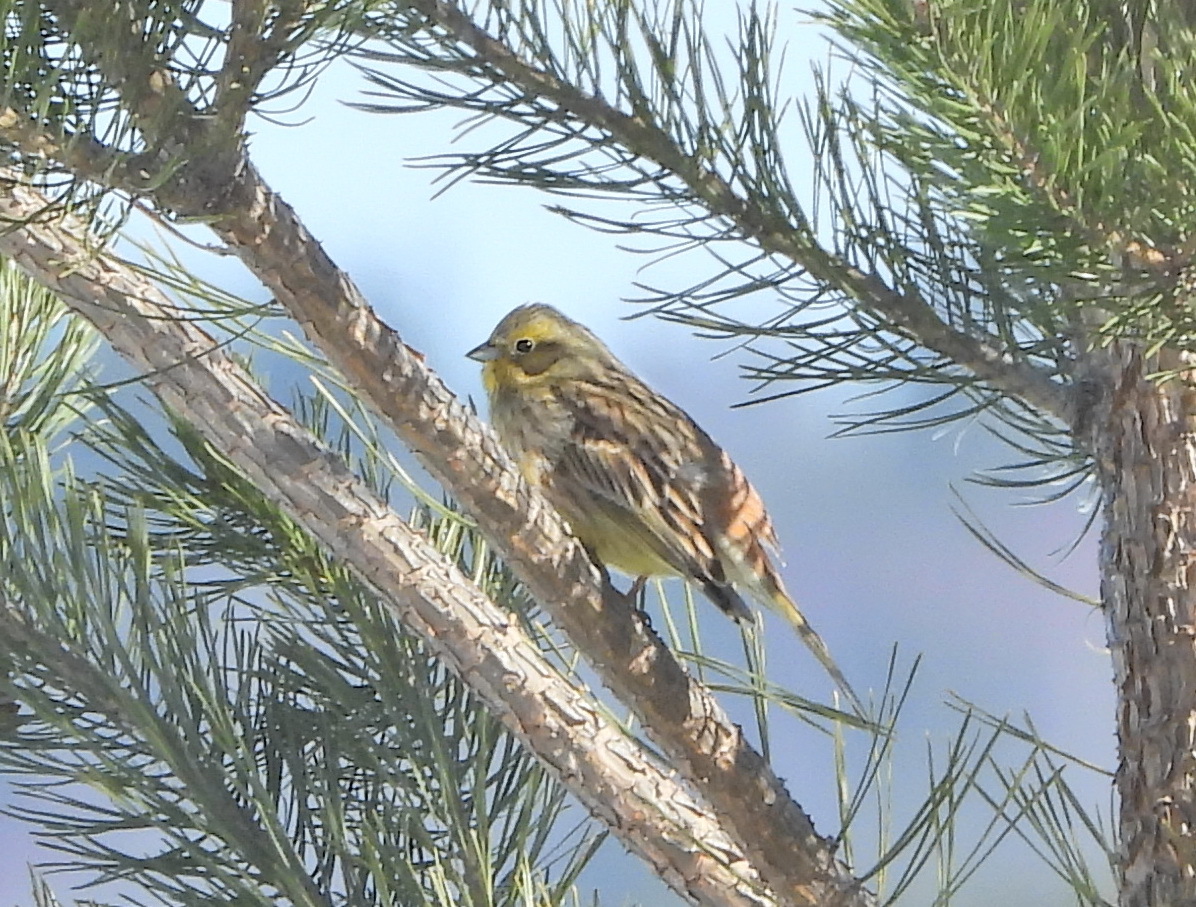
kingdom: Animalia
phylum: Chordata
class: Aves
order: Passeriformes
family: Emberizidae
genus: Emberiza
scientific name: Emberiza citrinella
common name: Yellowhammer
